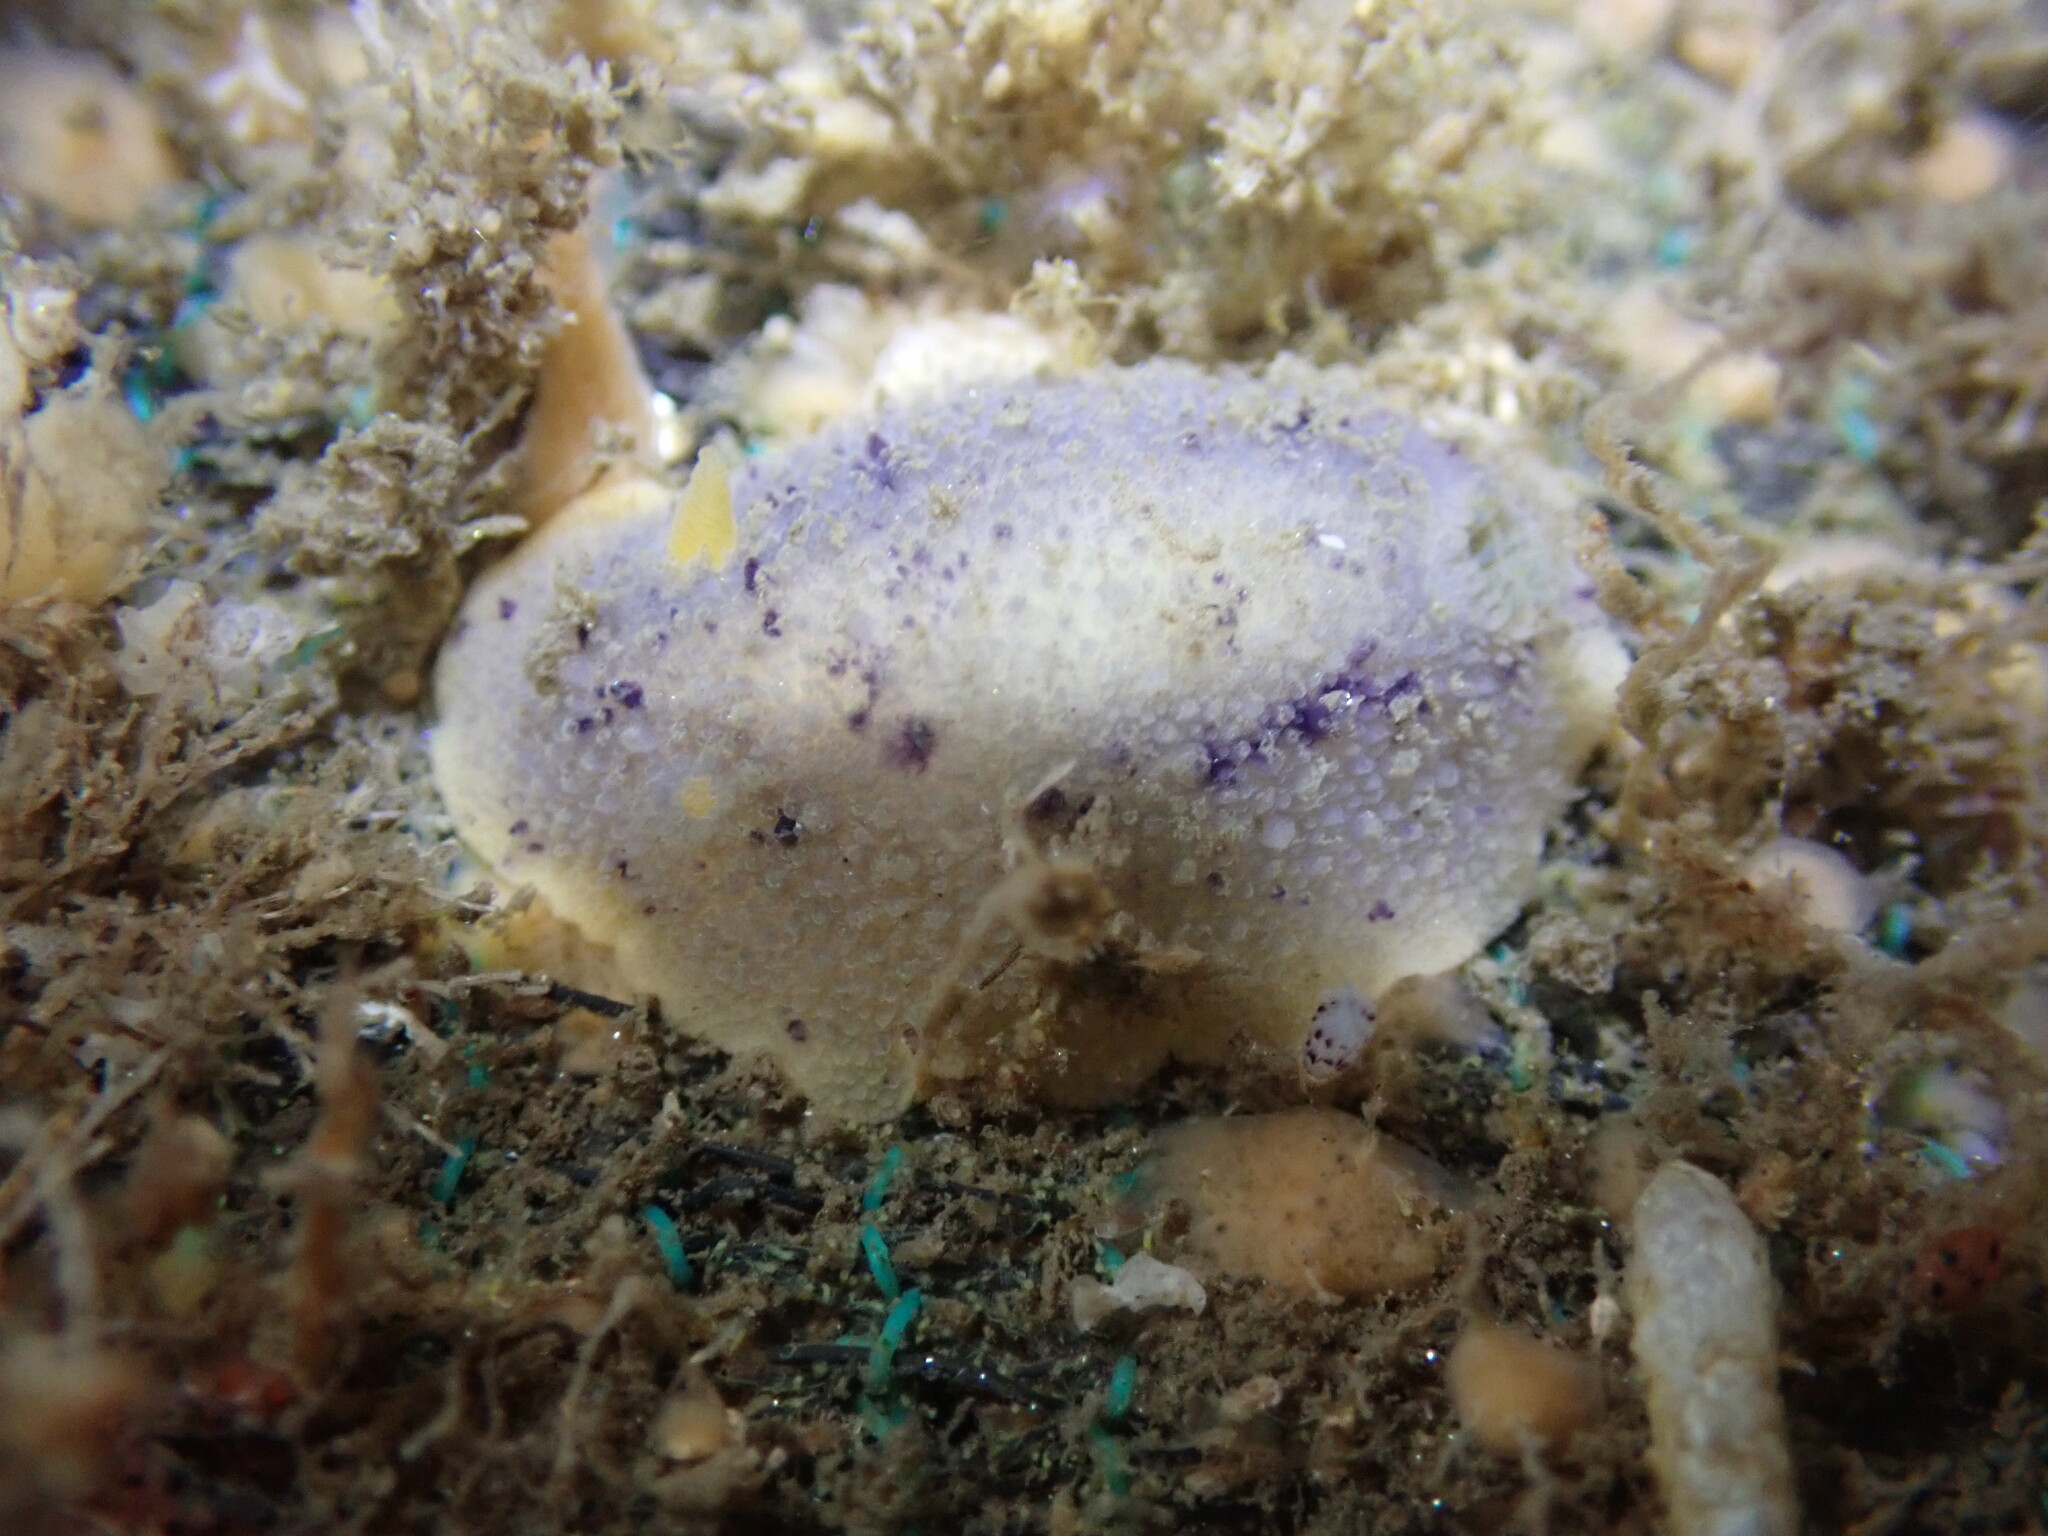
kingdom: Animalia
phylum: Mollusca
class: Gastropoda
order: Nudibranchia
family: Dorididae
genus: Doris
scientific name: Doris montereyensis
